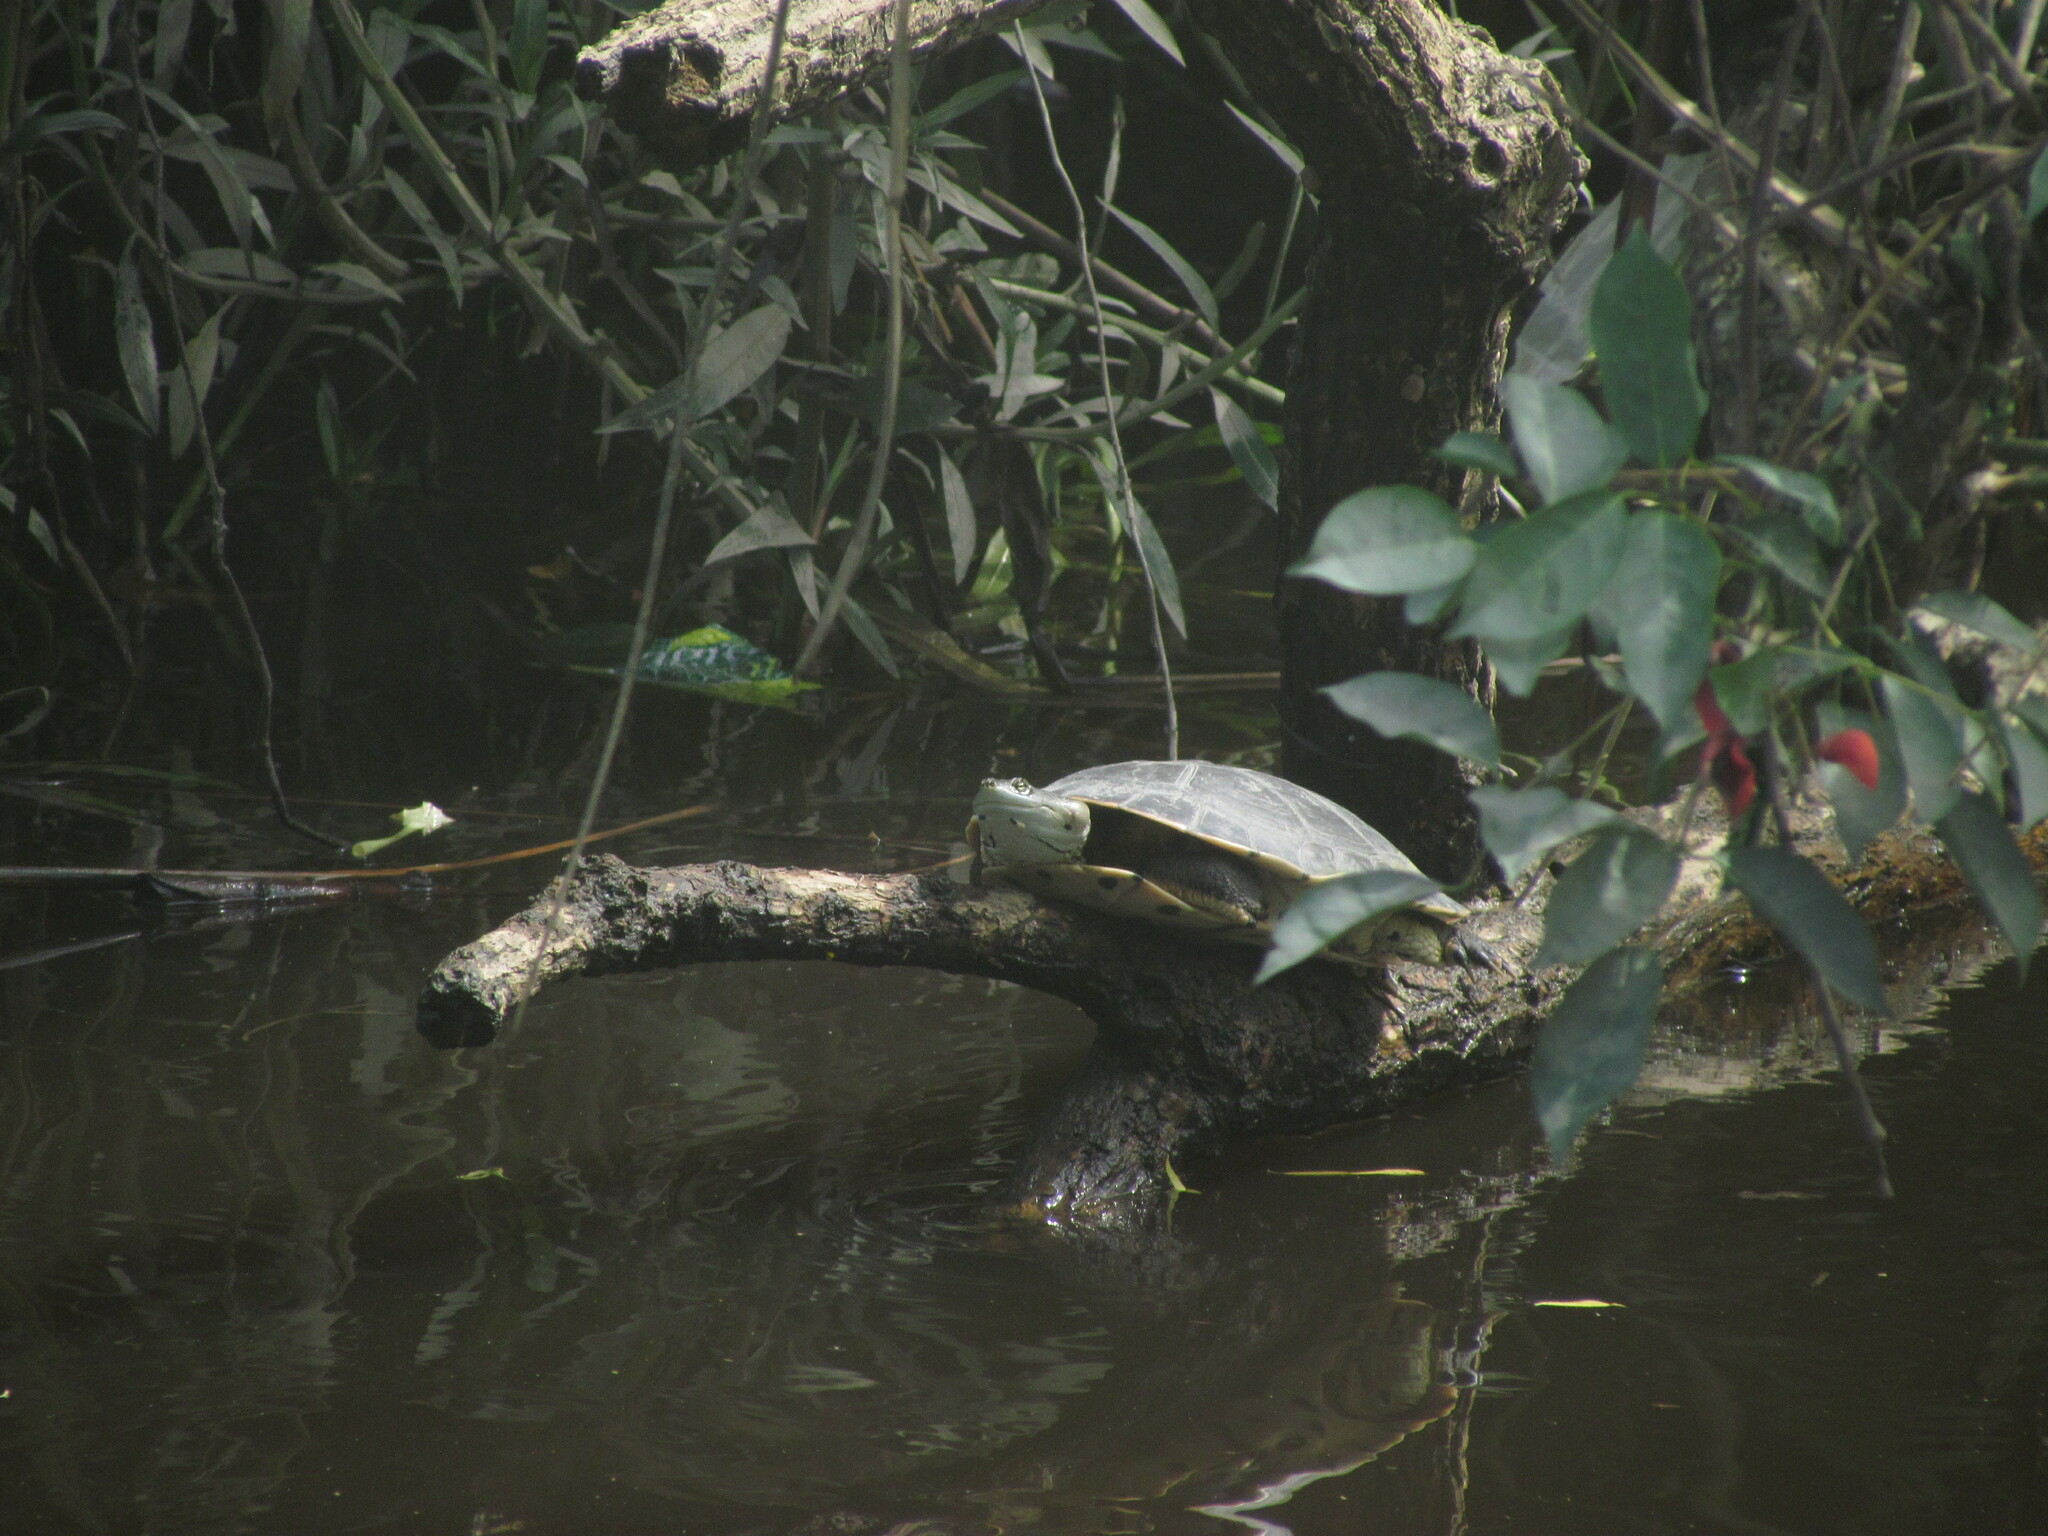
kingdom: Animalia
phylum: Chordata
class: Testudines
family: Chelidae
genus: Phrynops
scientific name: Phrynops hilarii
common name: Side-necked turtle of saint hillaire
